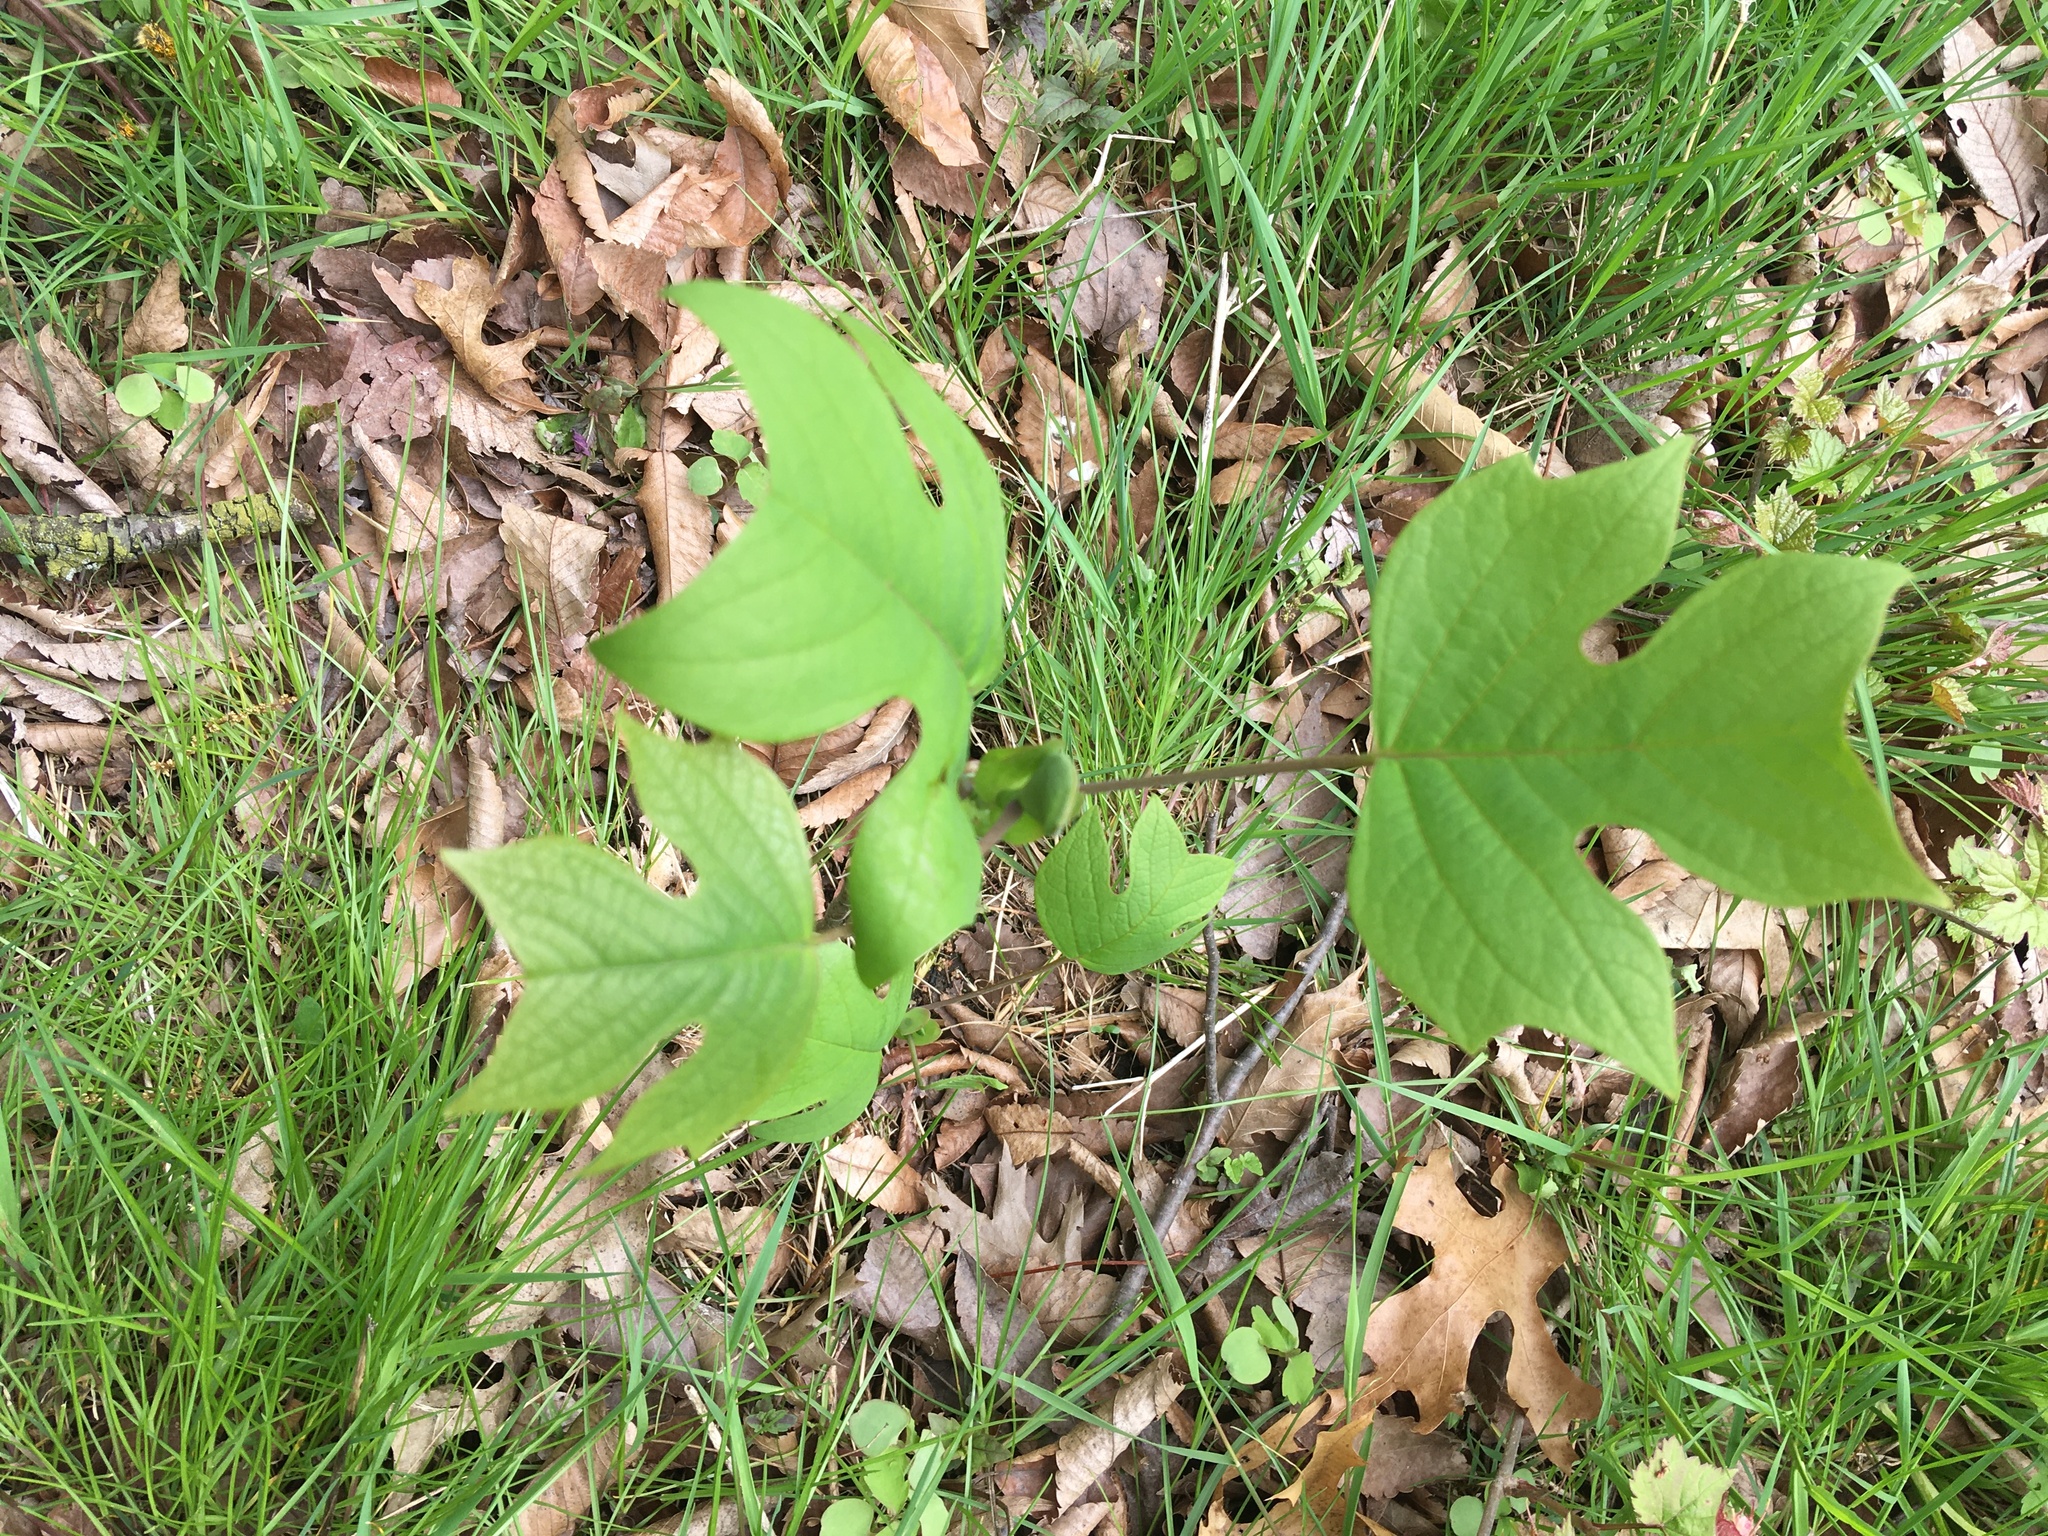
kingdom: Plantae
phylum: Tracheophyta
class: Magnoliopsida
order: Magnoliales
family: Magnoliaceae
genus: Liriodendron
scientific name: Liriodendron tulipifera
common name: Tulip tree
